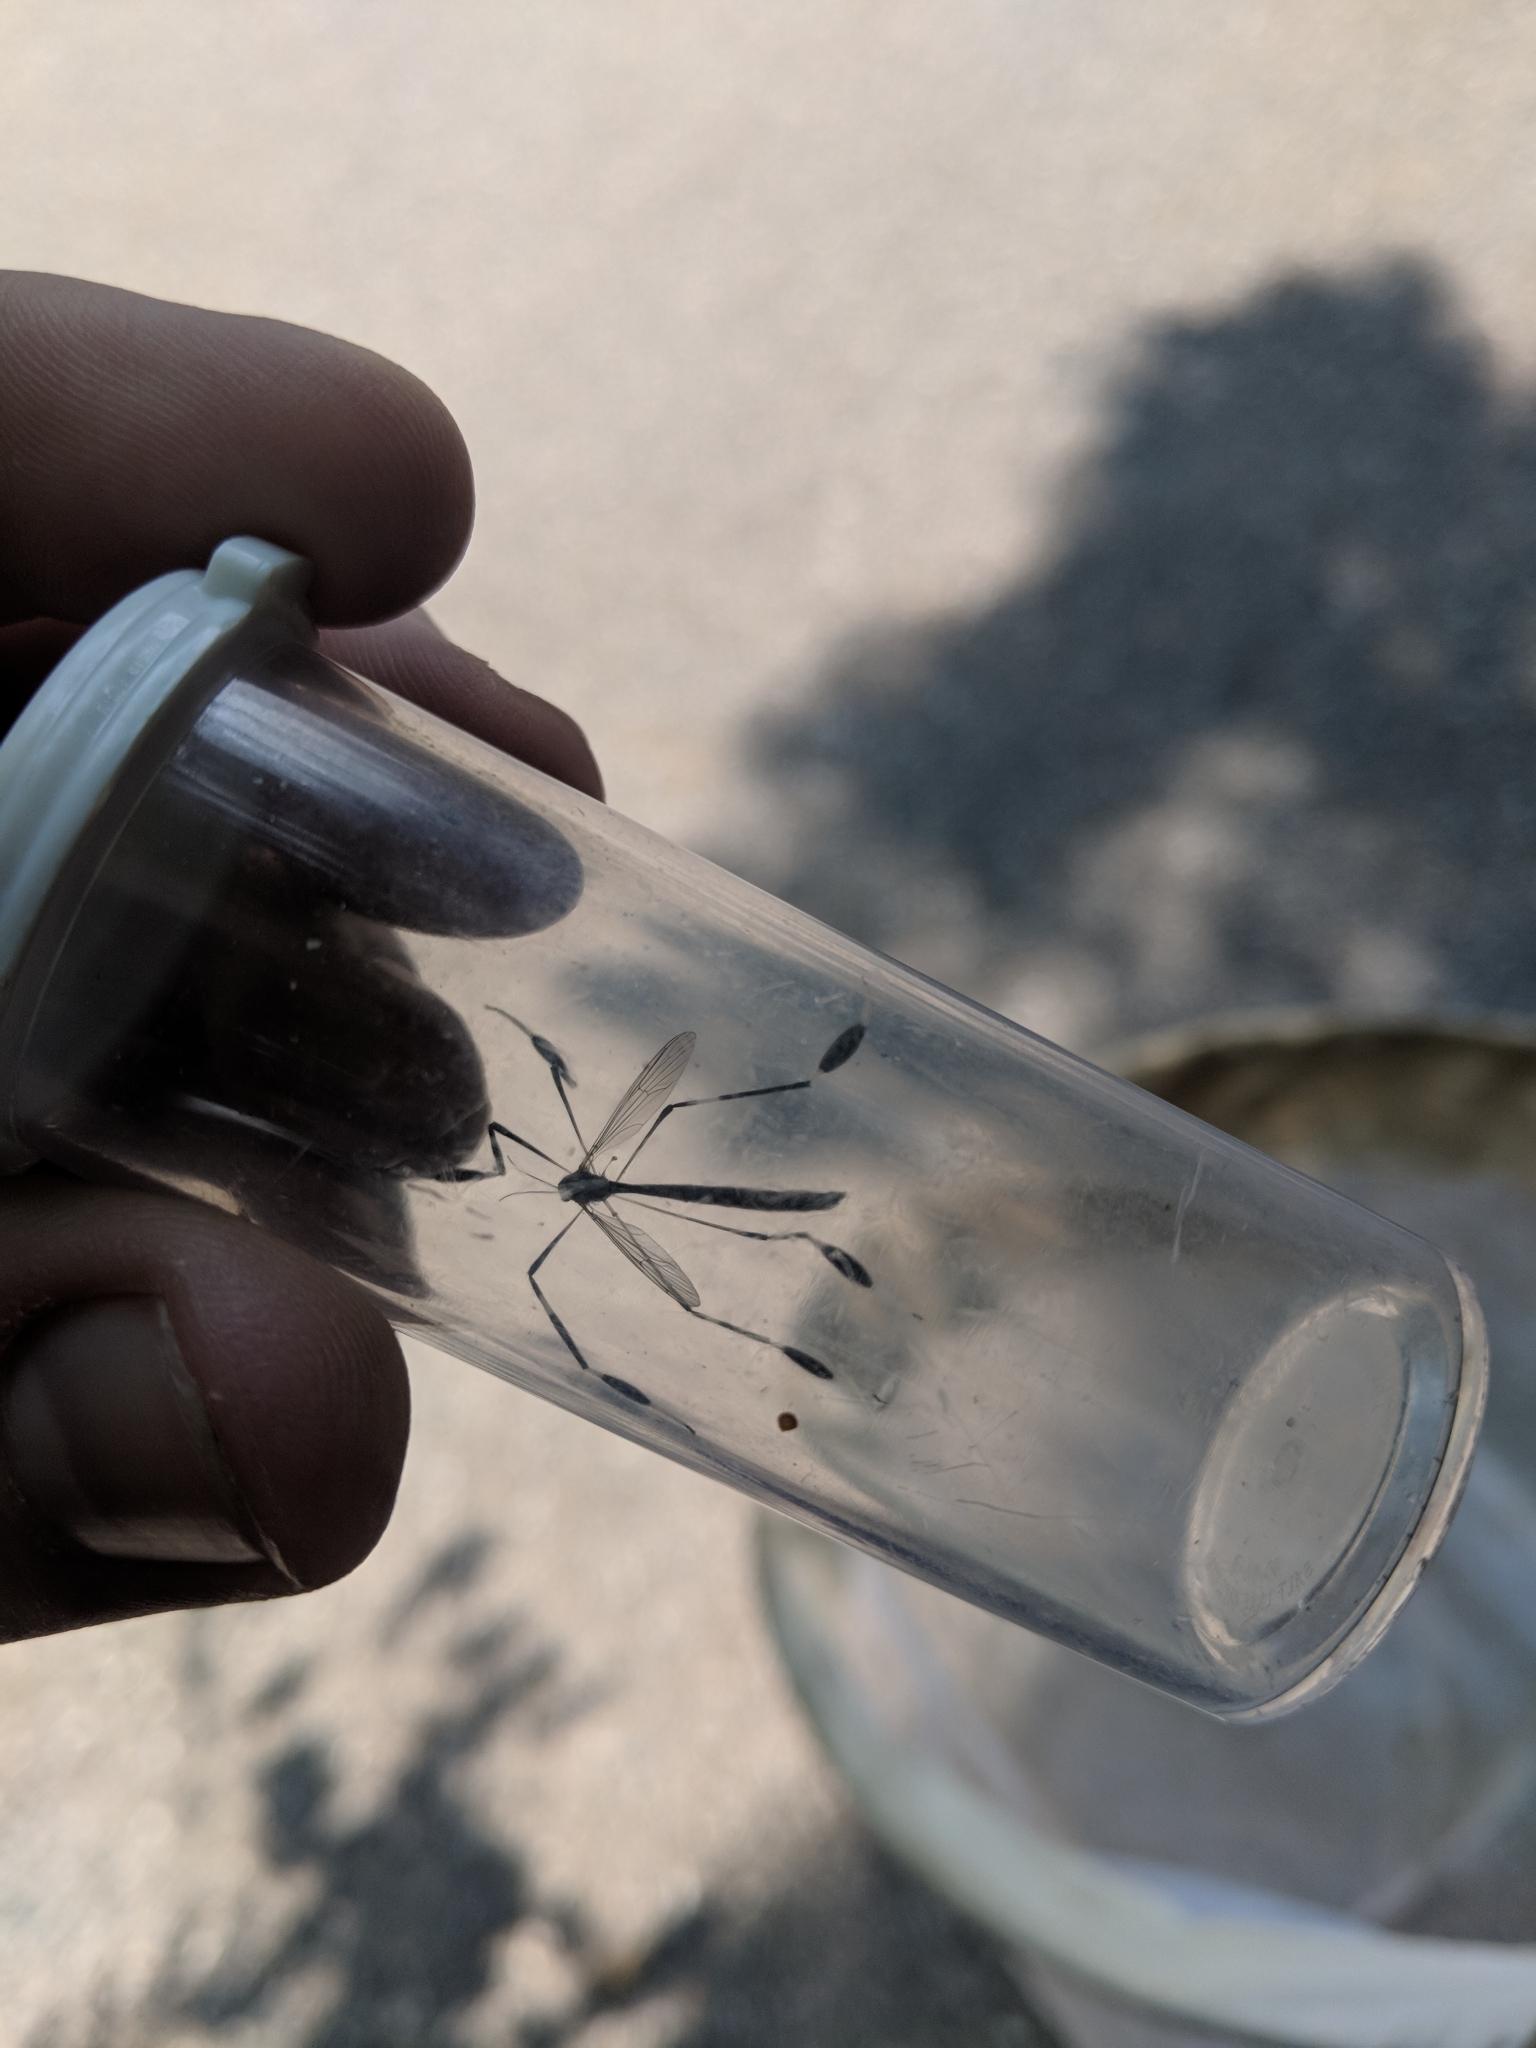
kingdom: Animalia
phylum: Arthropoda
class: Insecta
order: Diptera
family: Ptychopteridae
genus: Bittacomorpha
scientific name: Bittacomorpha clavipes
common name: Eastern phantom crane fly
